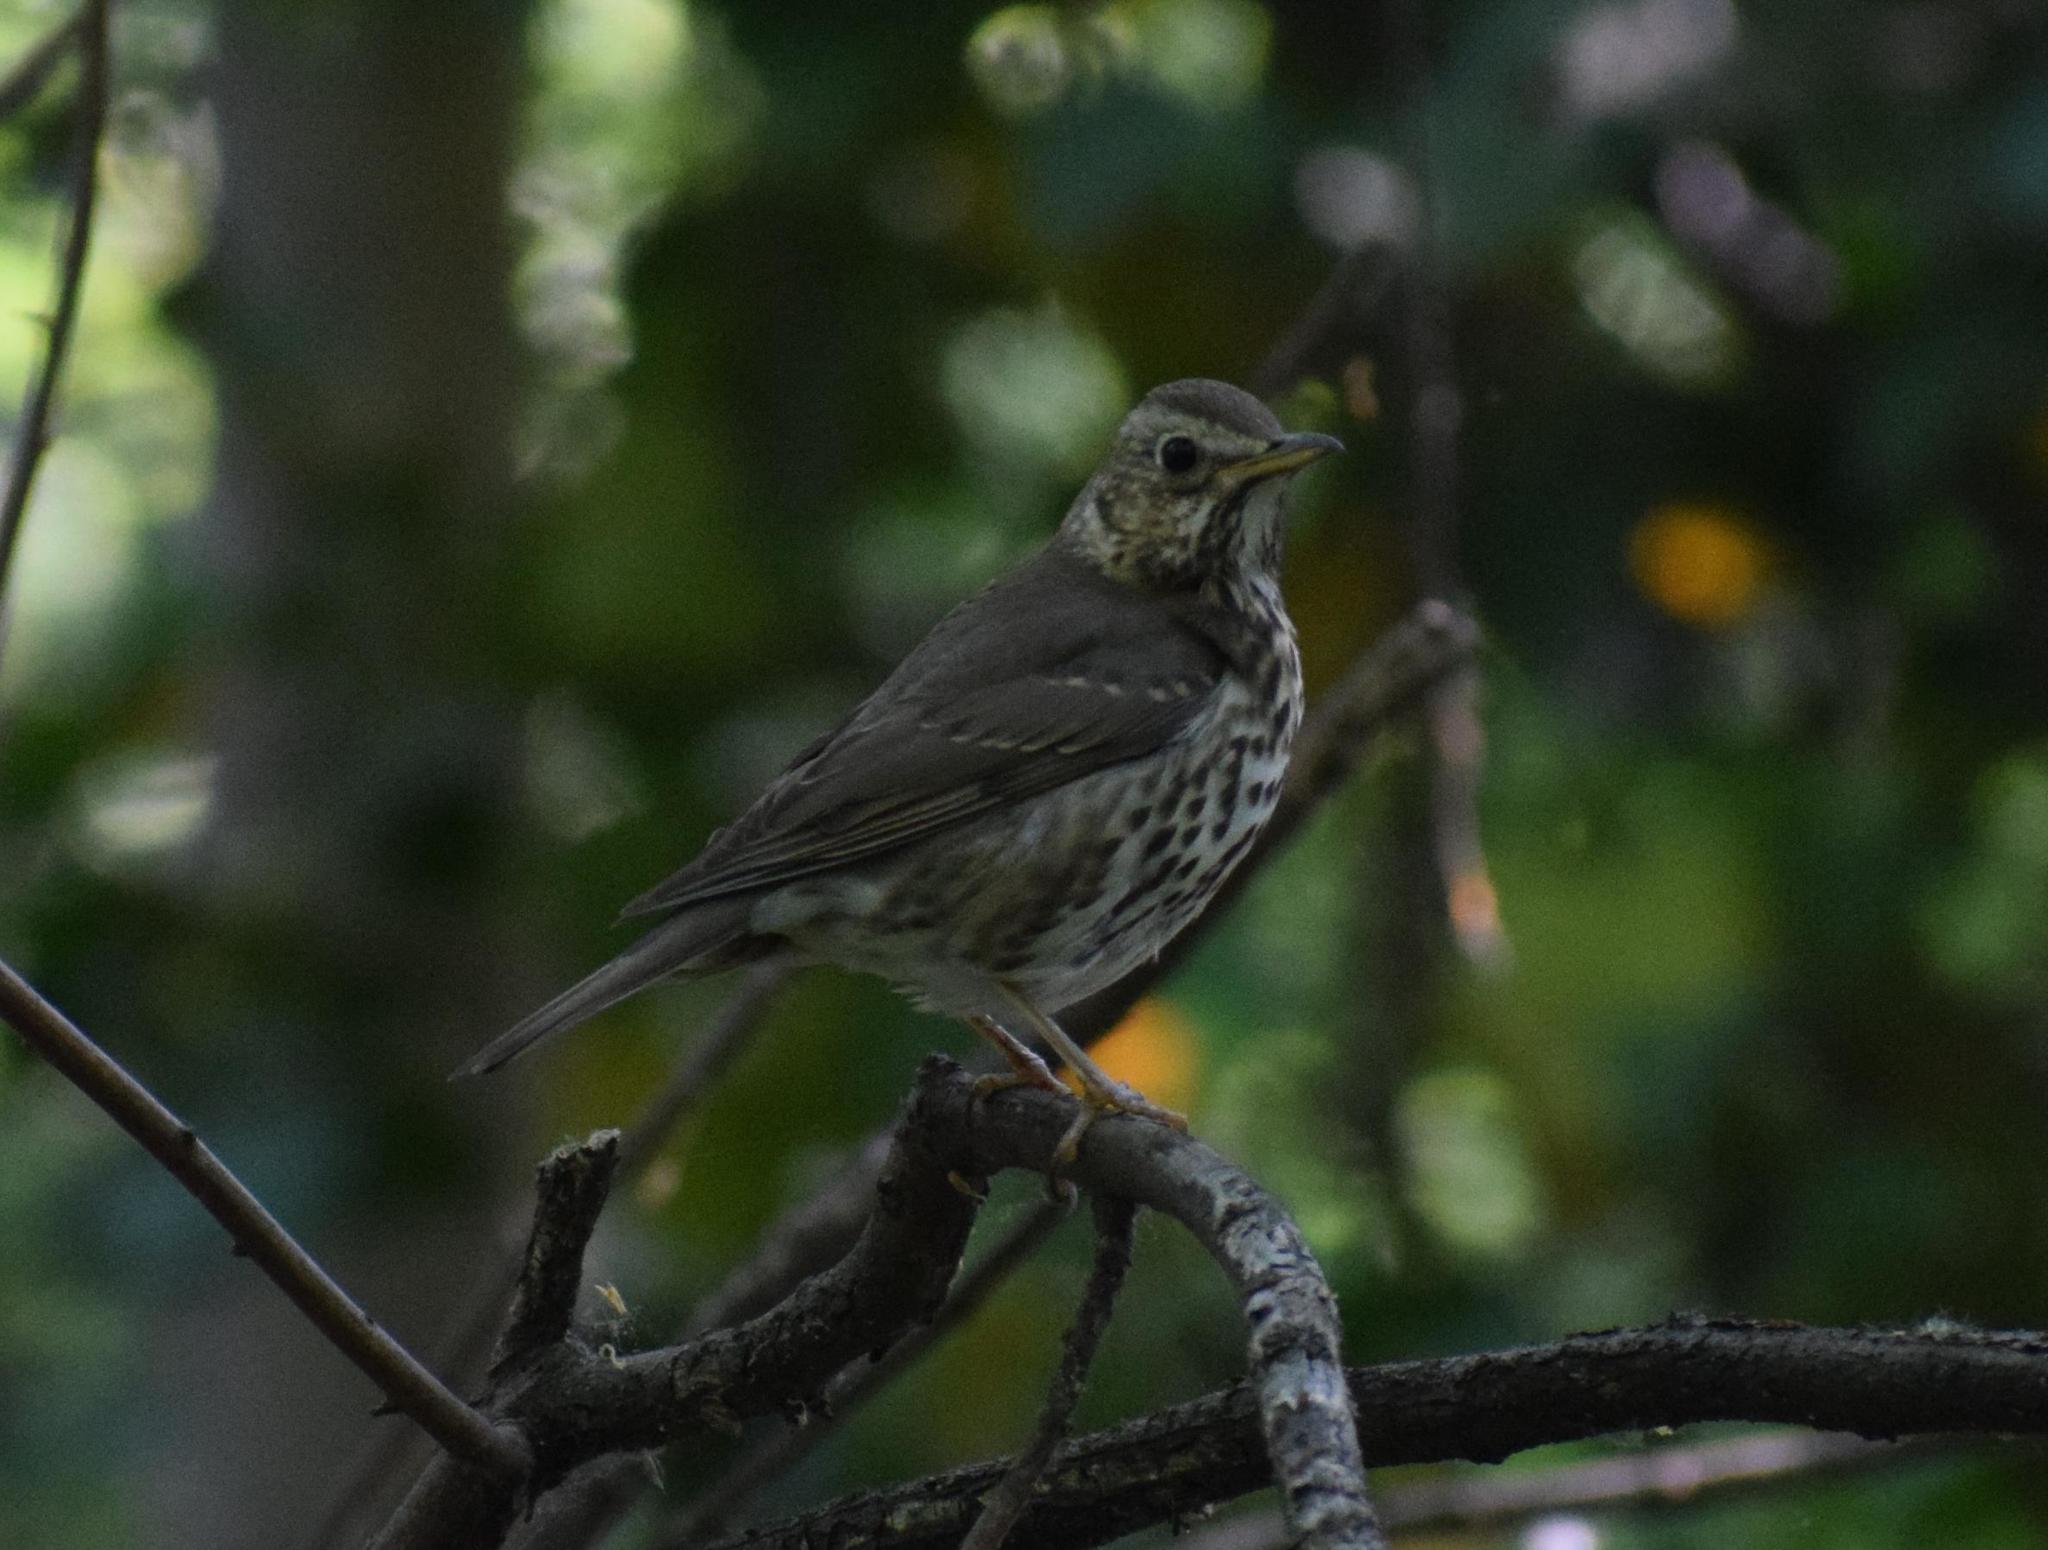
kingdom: Animalia
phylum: Chordata
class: Aves
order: Passeriformes
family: Turdidae
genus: Turdus
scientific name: Turdus philomelos
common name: Song thrush
